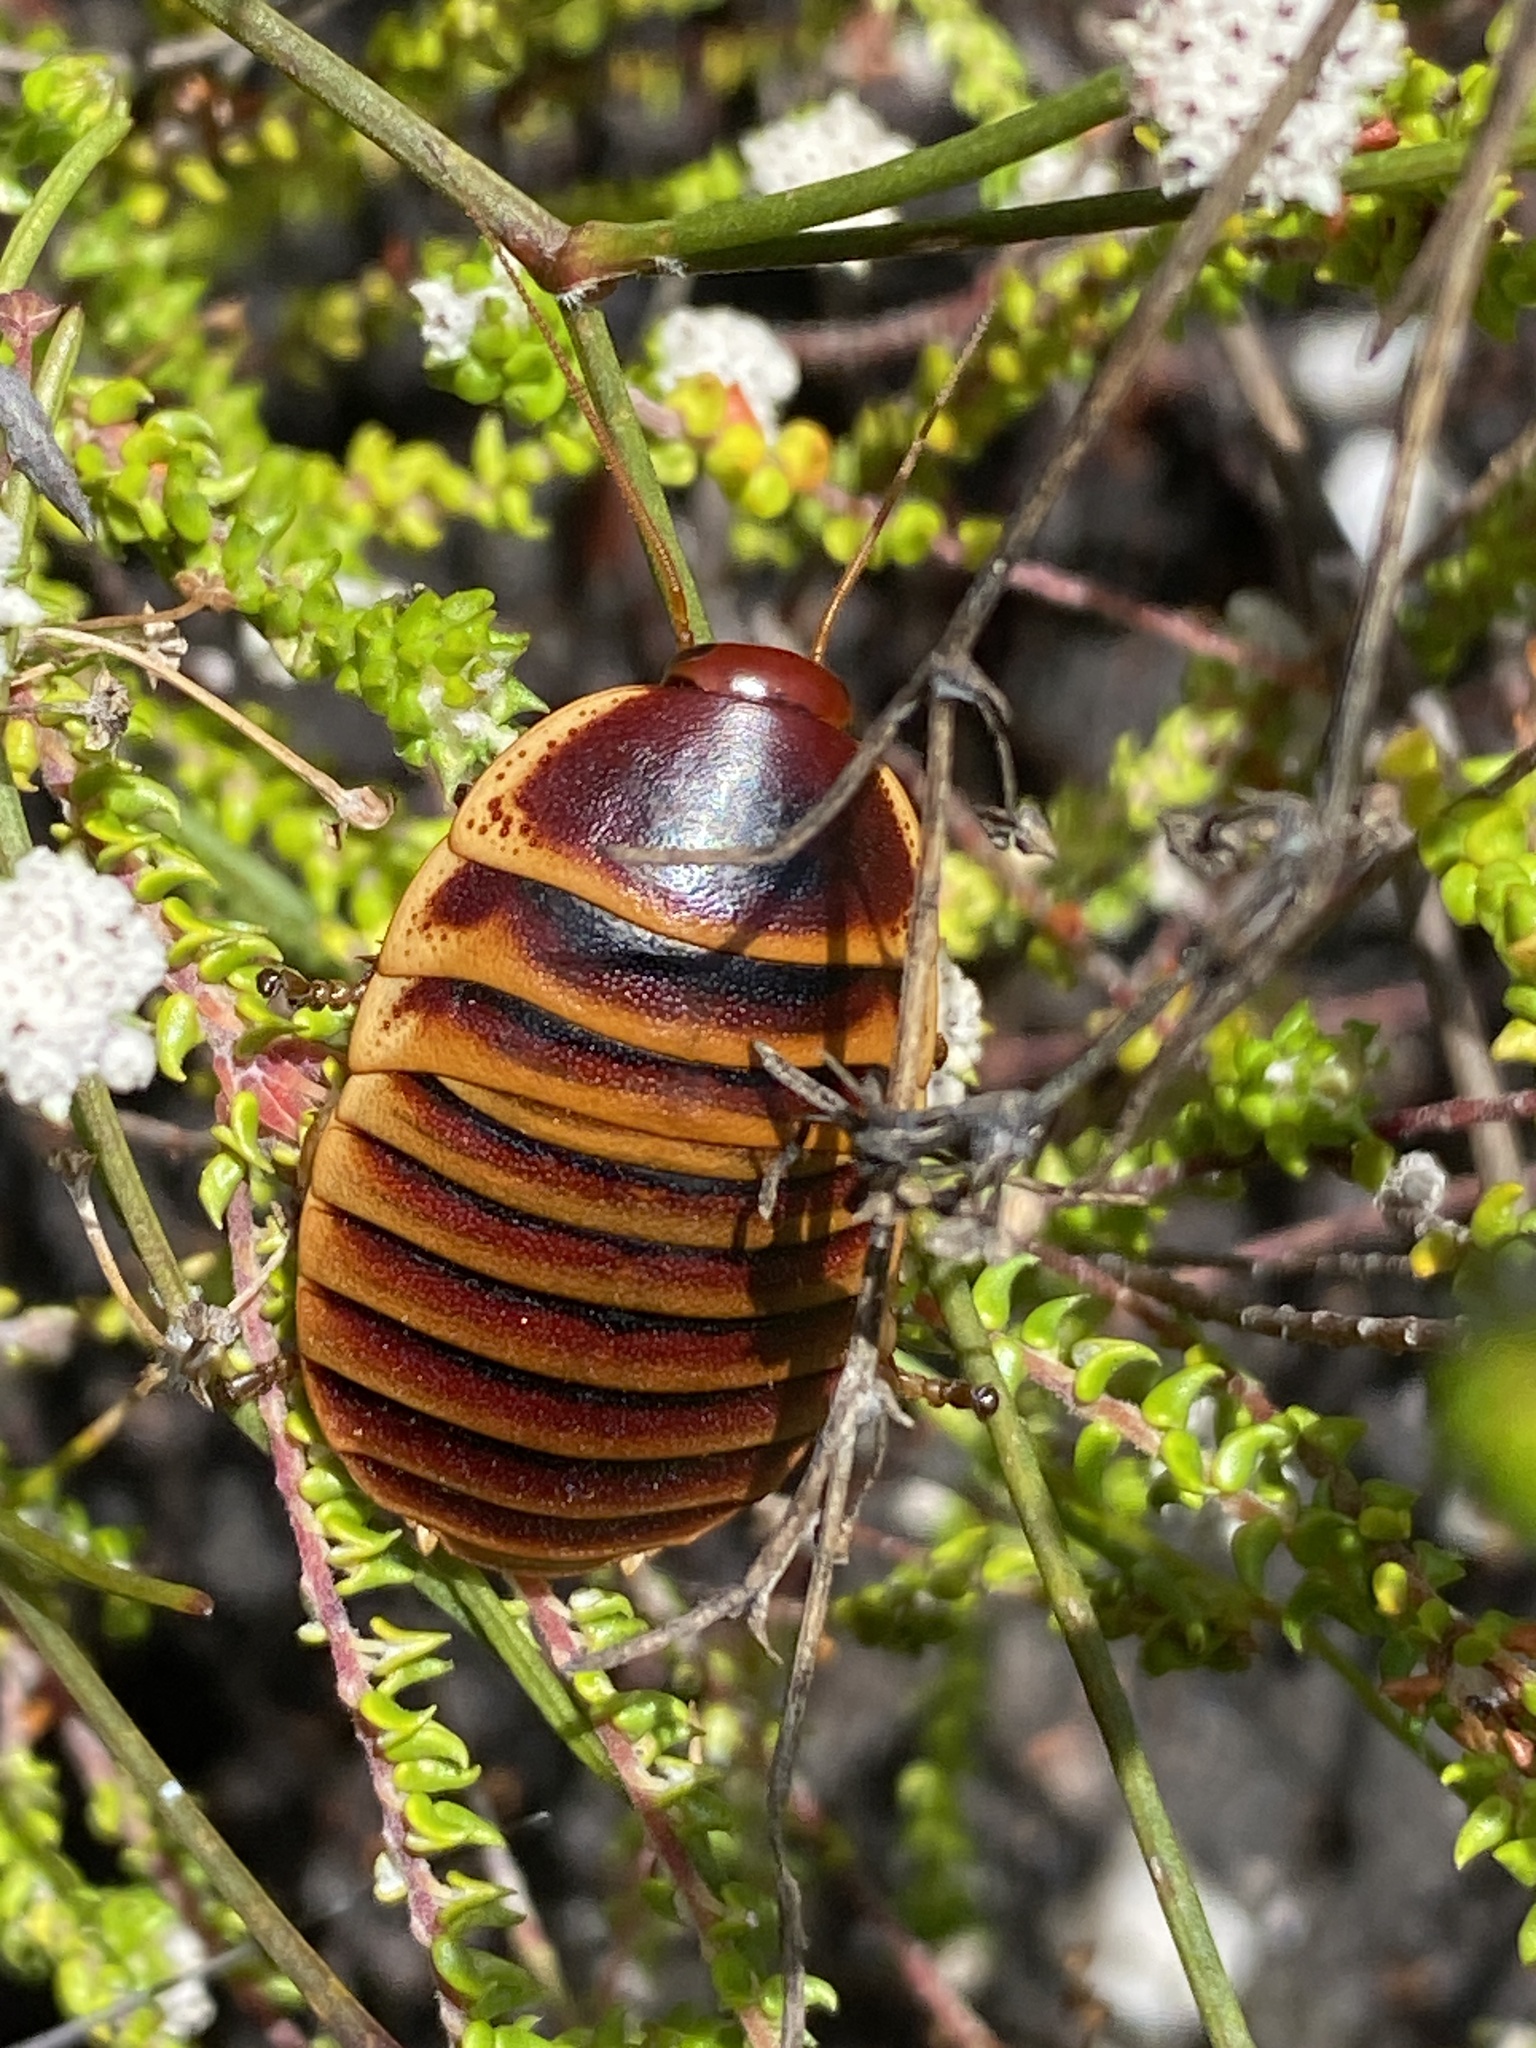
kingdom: Animalia
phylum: Arthropoda
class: Insecta
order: Blattodea
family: Blaberidae
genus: Aptera
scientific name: Aptera fusca
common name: Cape mountain cockroach
